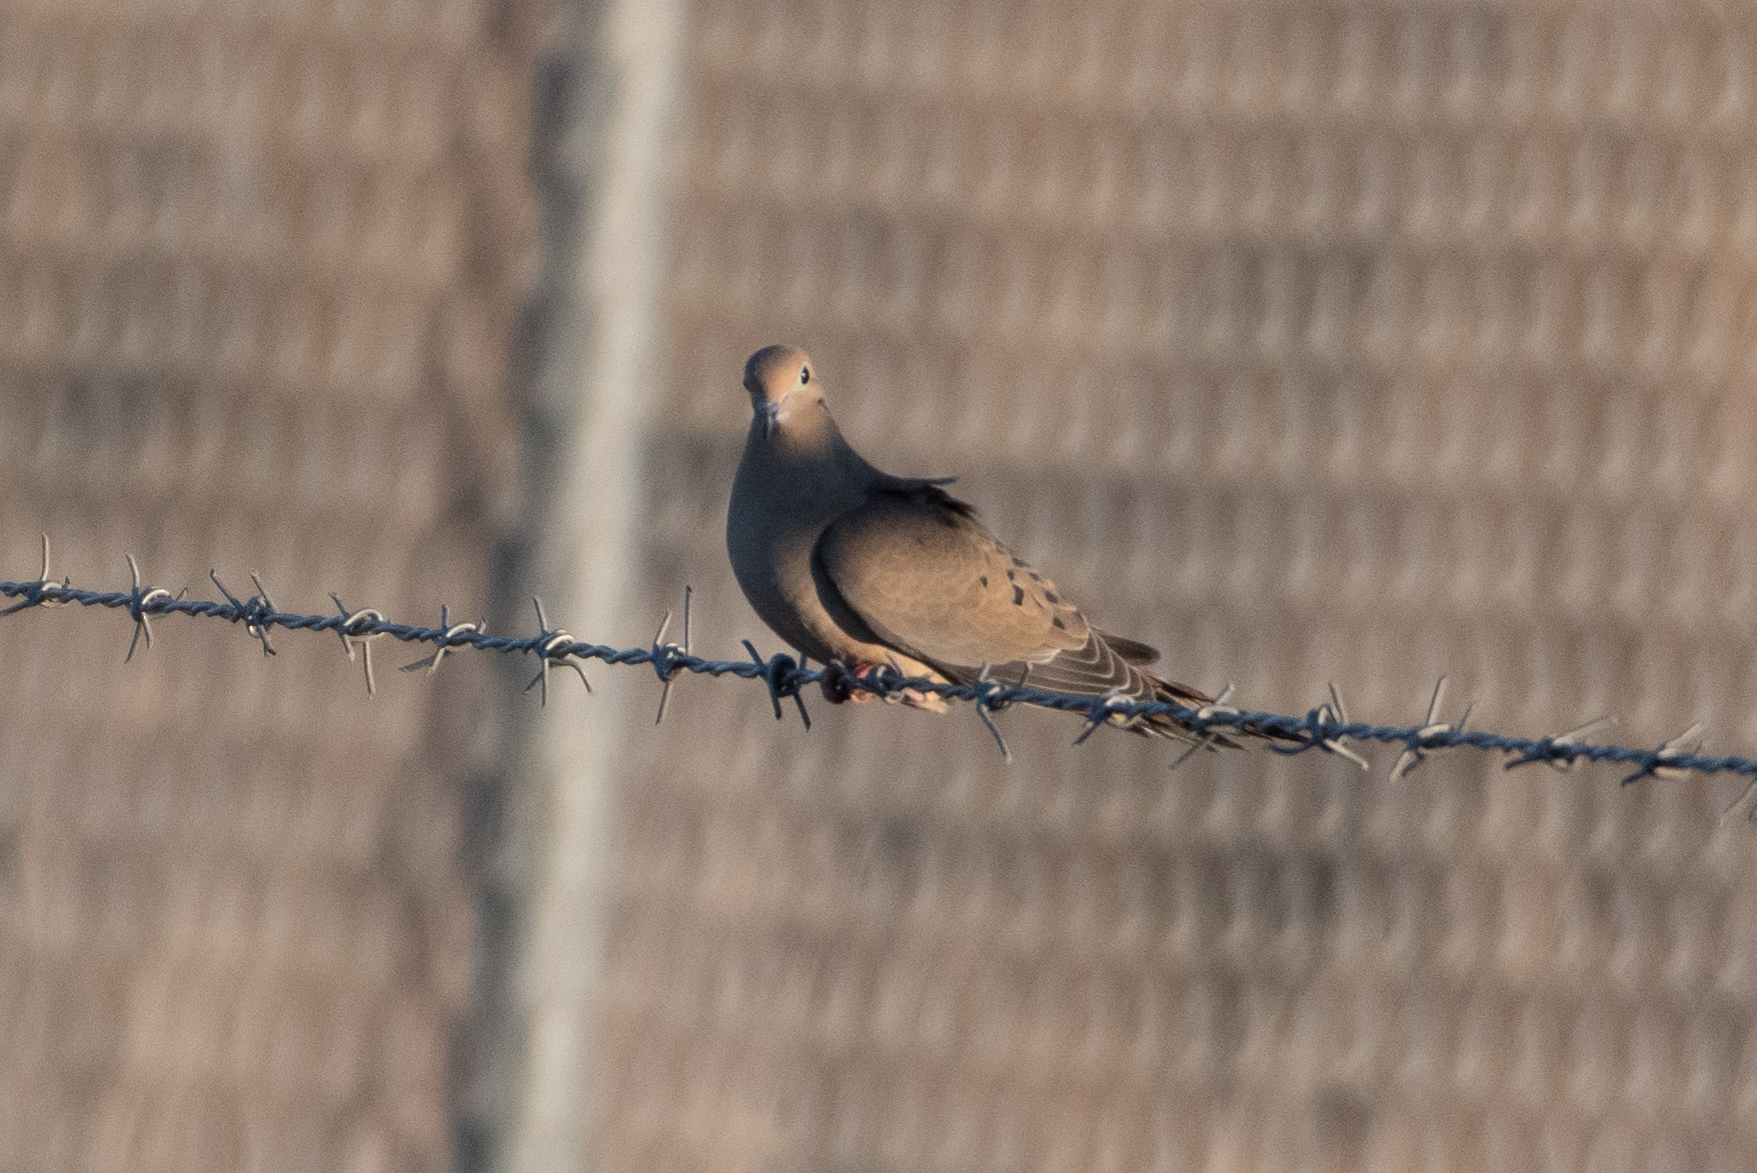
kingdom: Animalia
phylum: Chordata
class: Aves
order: Columbiformes
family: Columbidae
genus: Zenaida
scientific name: Zenaida macroura
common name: Mourning dove
